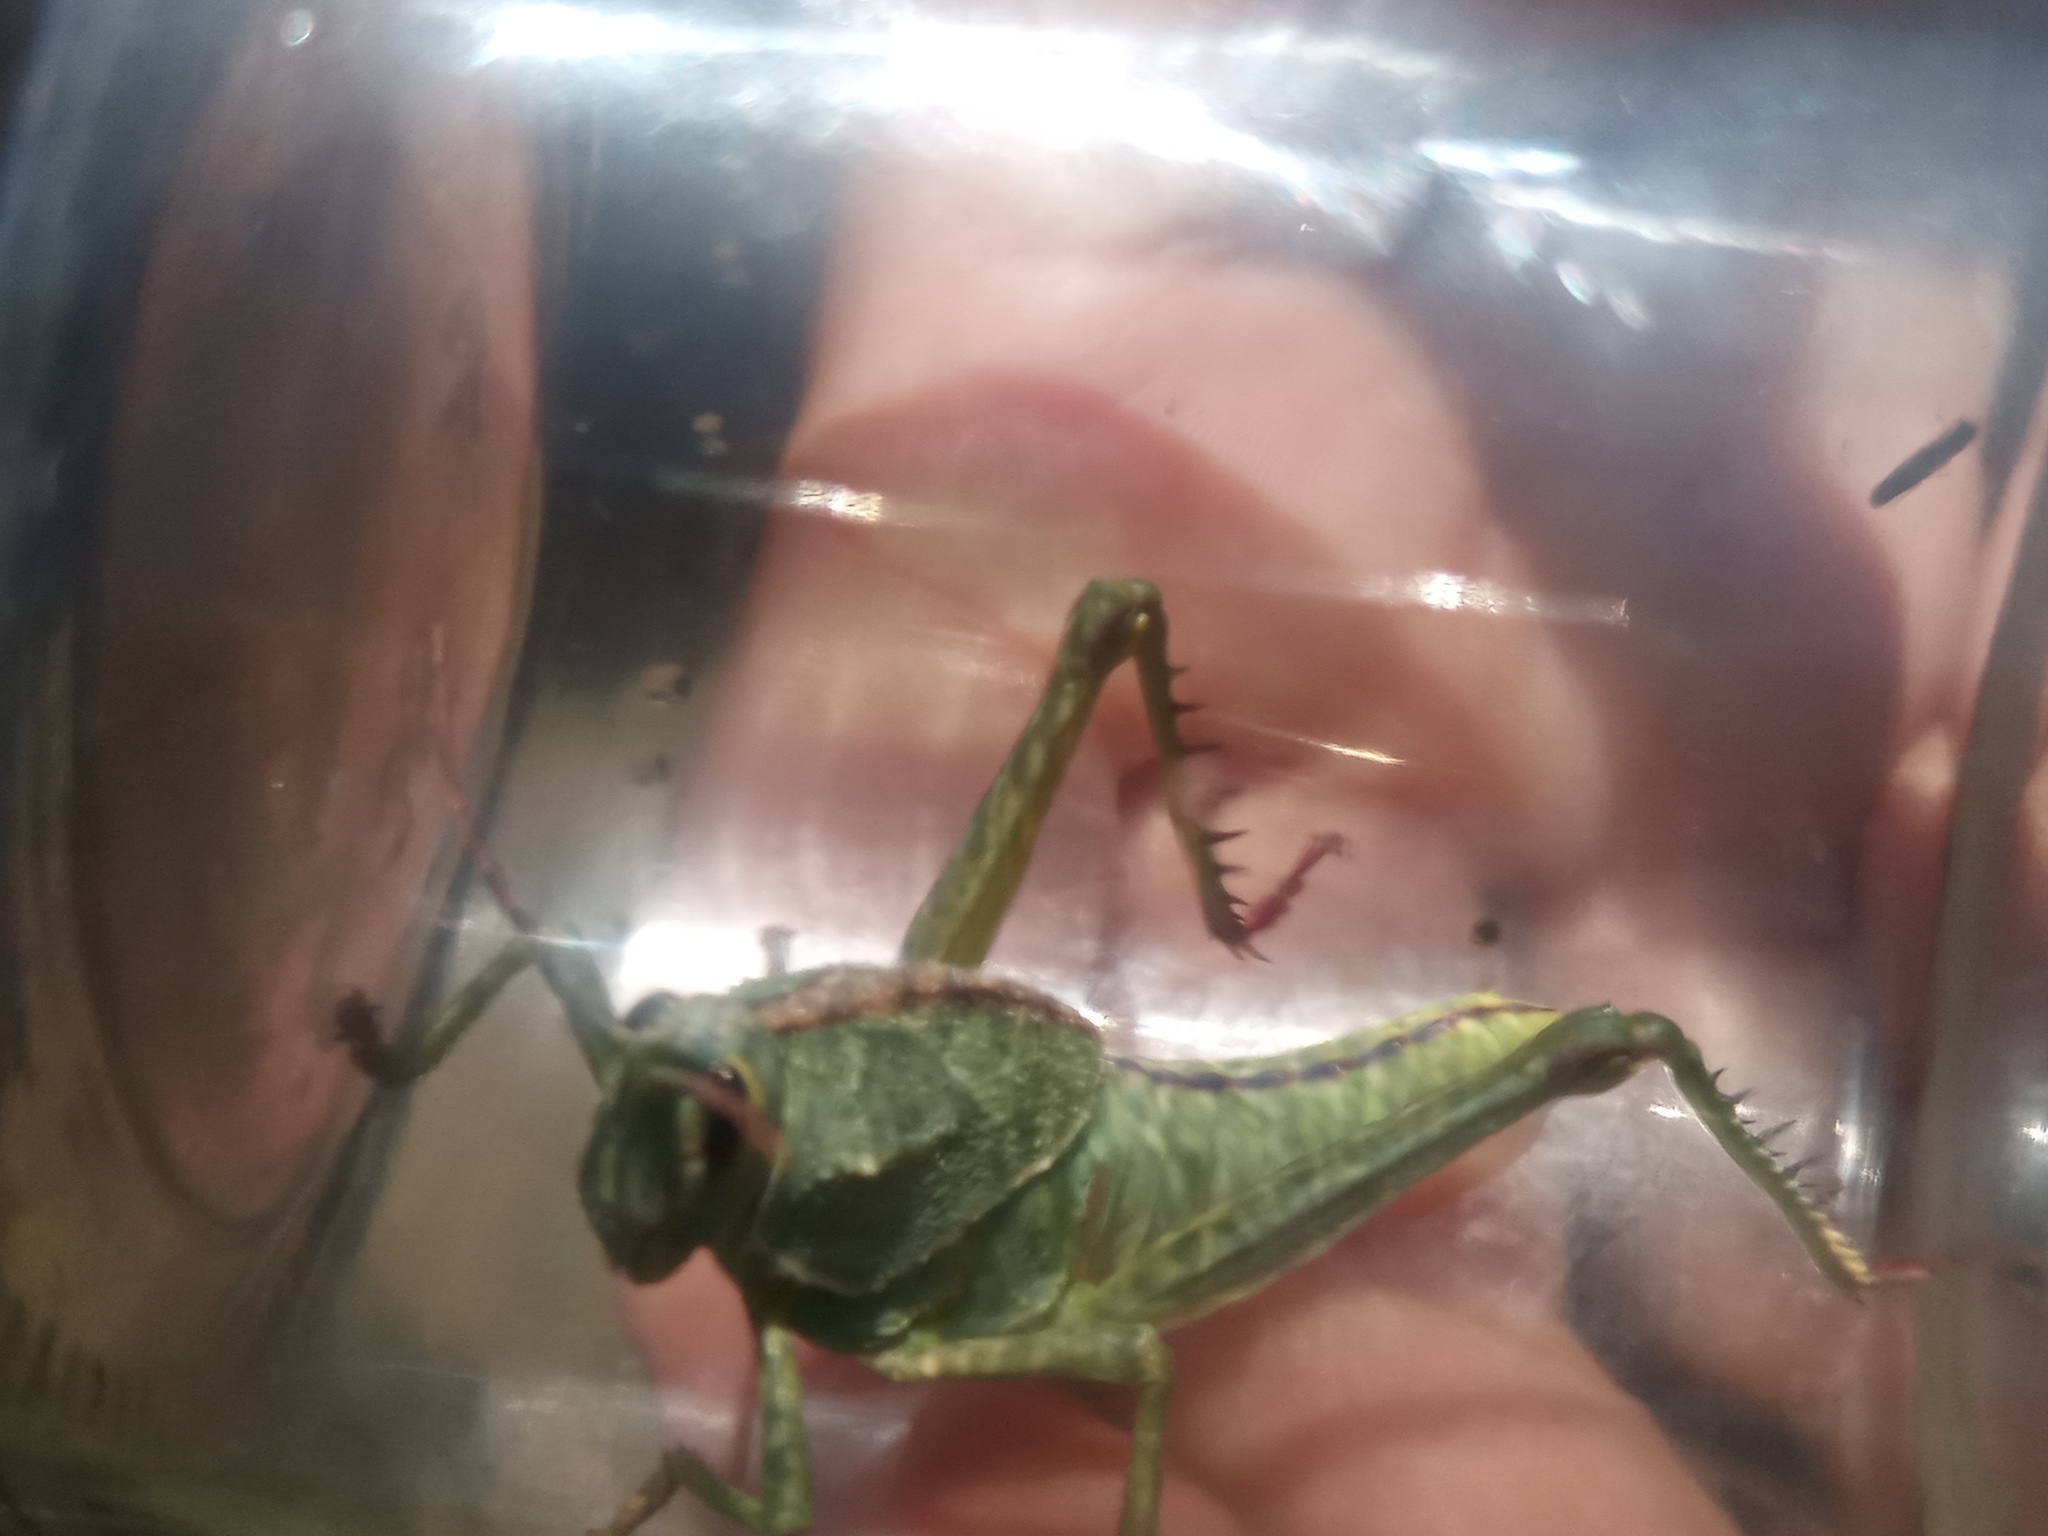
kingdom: Animalia
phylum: Arthropoda
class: Insecta
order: Orthoptera
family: Romaleidae
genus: Staleochlora
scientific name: Staleochlora viridicata
